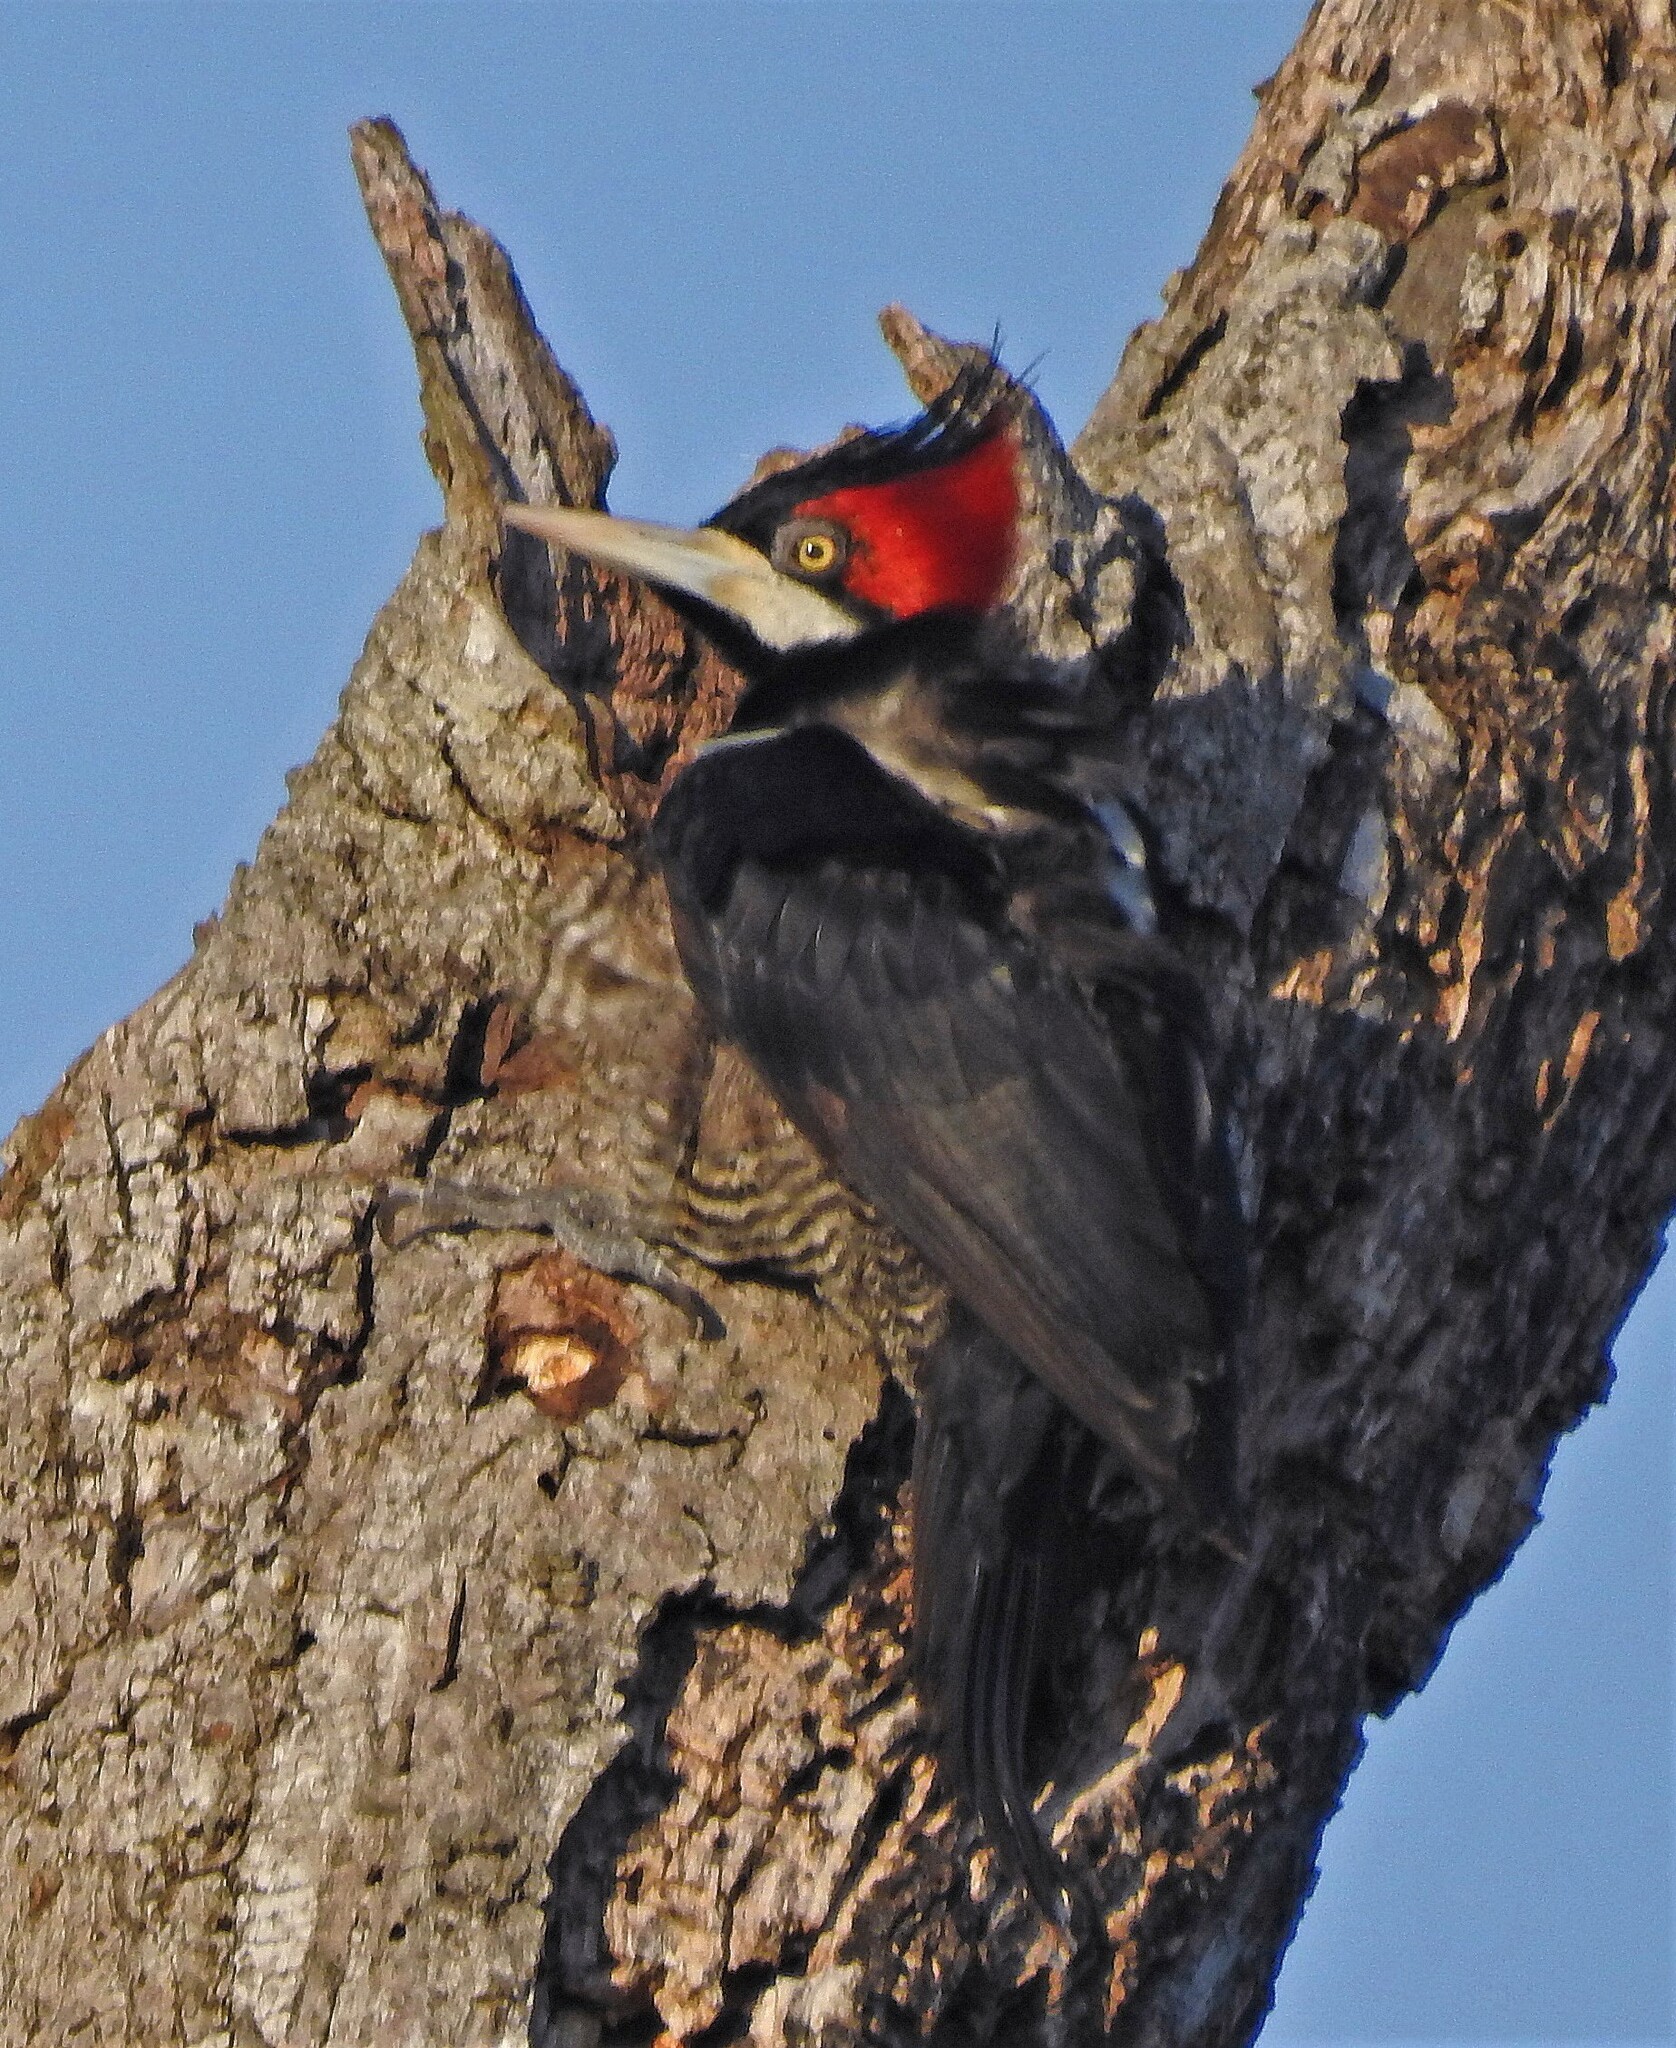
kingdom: Animalia
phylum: Chordata
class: Aves
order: Piciformes
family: Picidae
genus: Campephilus
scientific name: Campephilus melanoleucos
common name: Crimson-crested woodpecker
